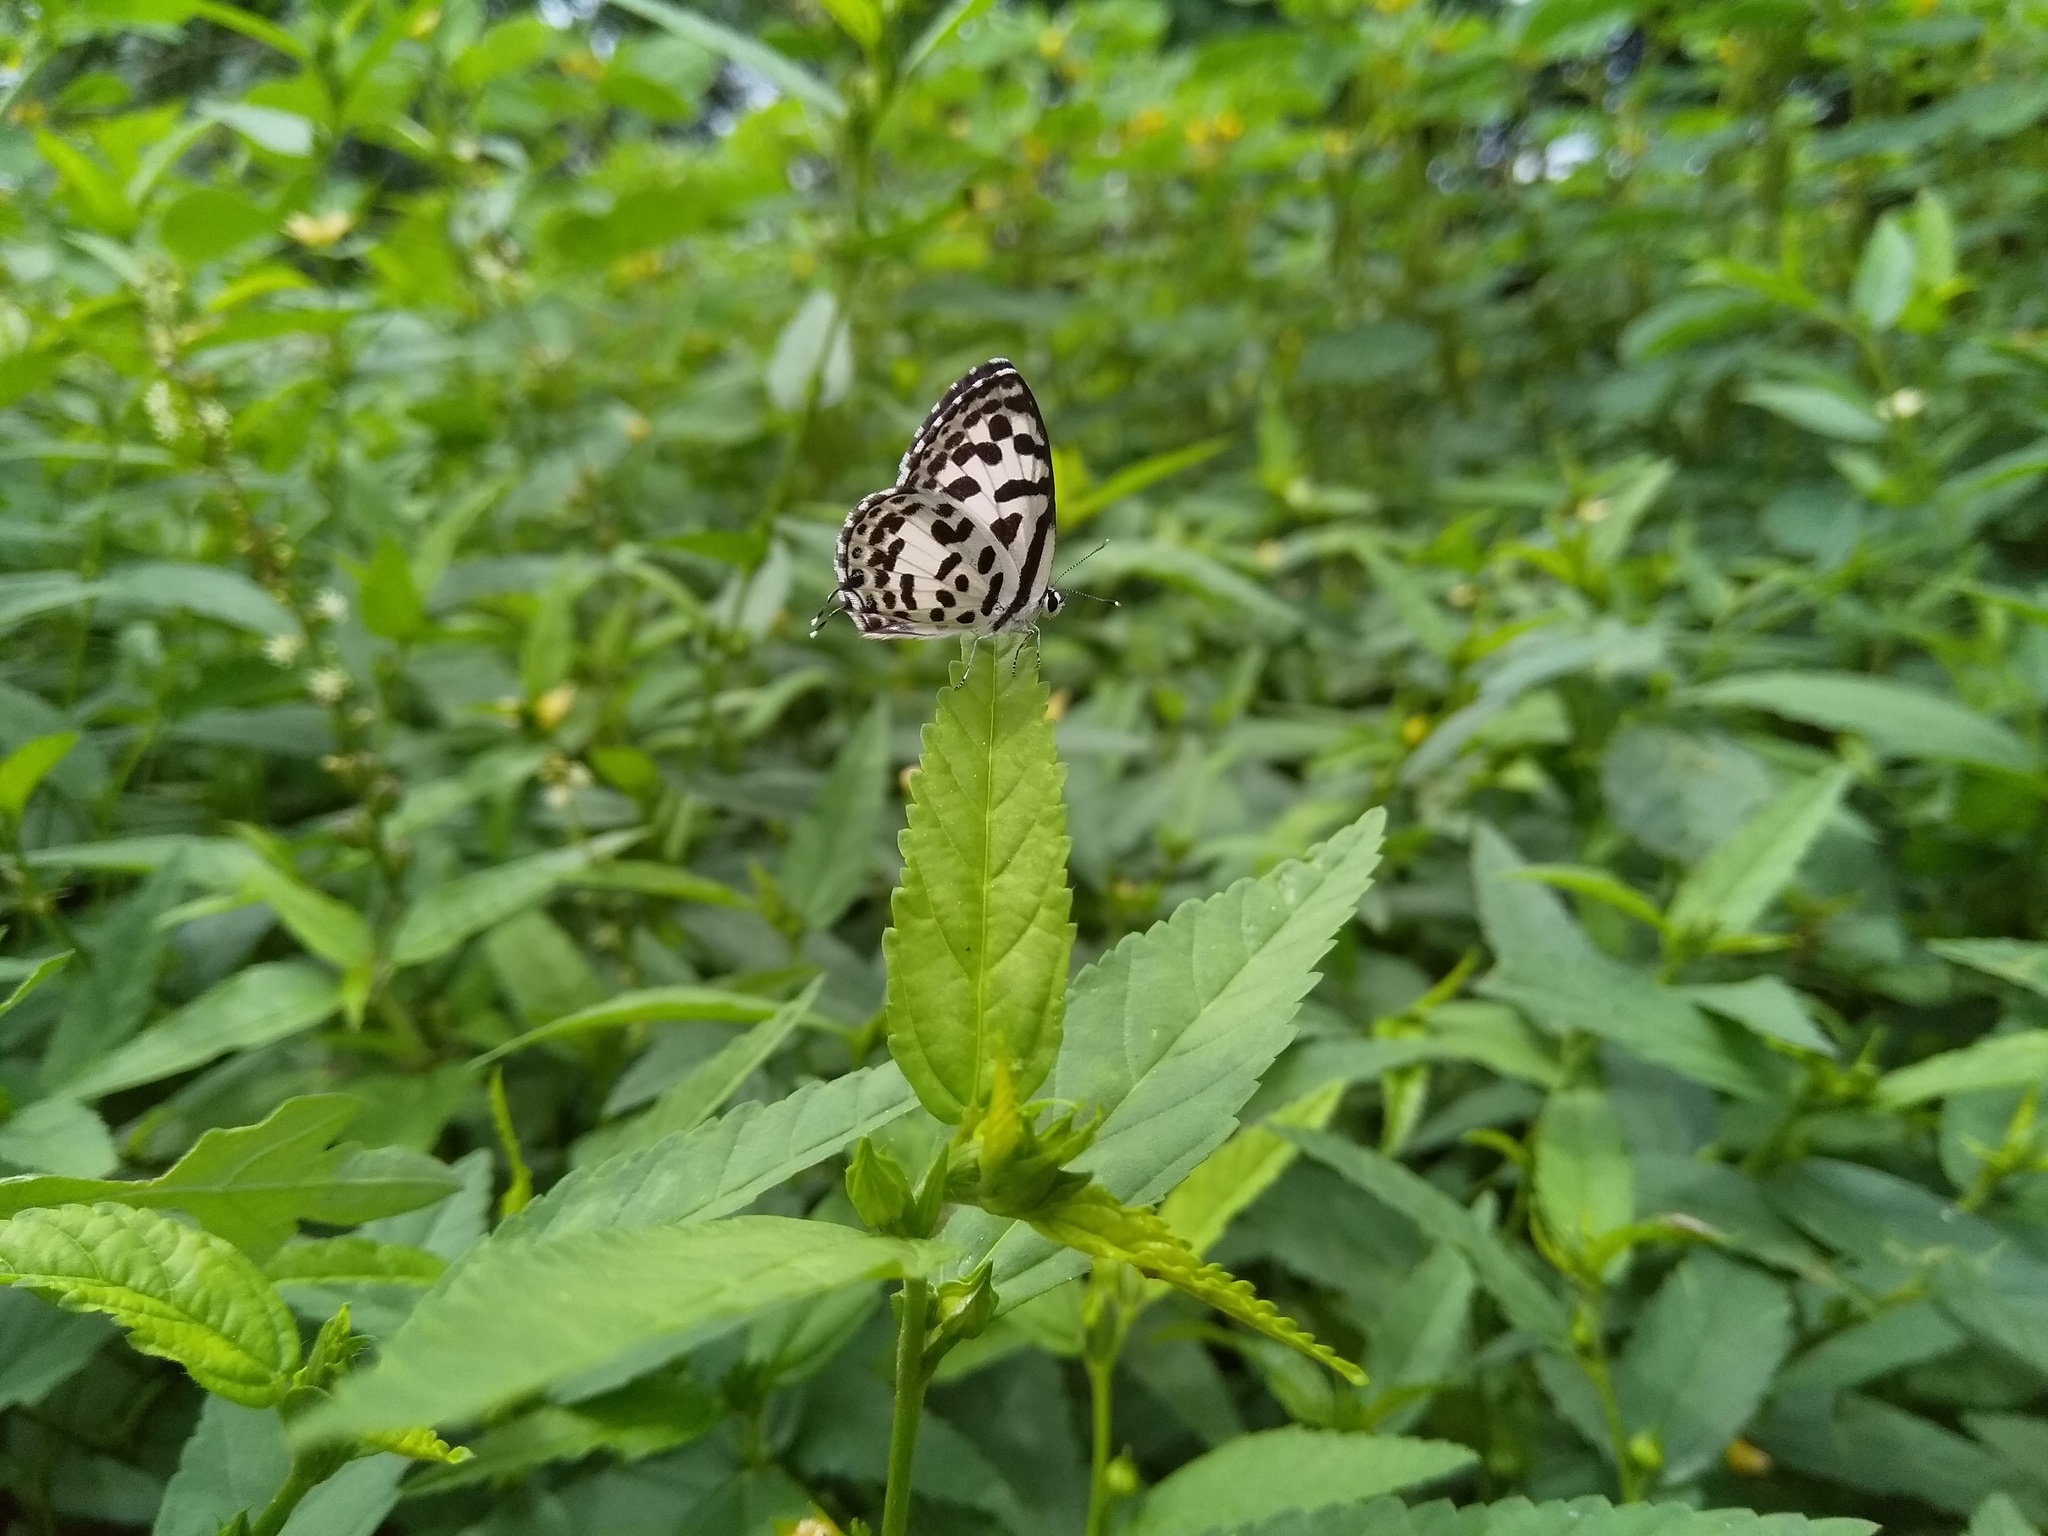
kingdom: Animalia
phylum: Arthropoda
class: Insecta
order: Lepidoptera
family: Lycaenidae
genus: Castalius
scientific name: Castalius rosimon
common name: Common pierrot
